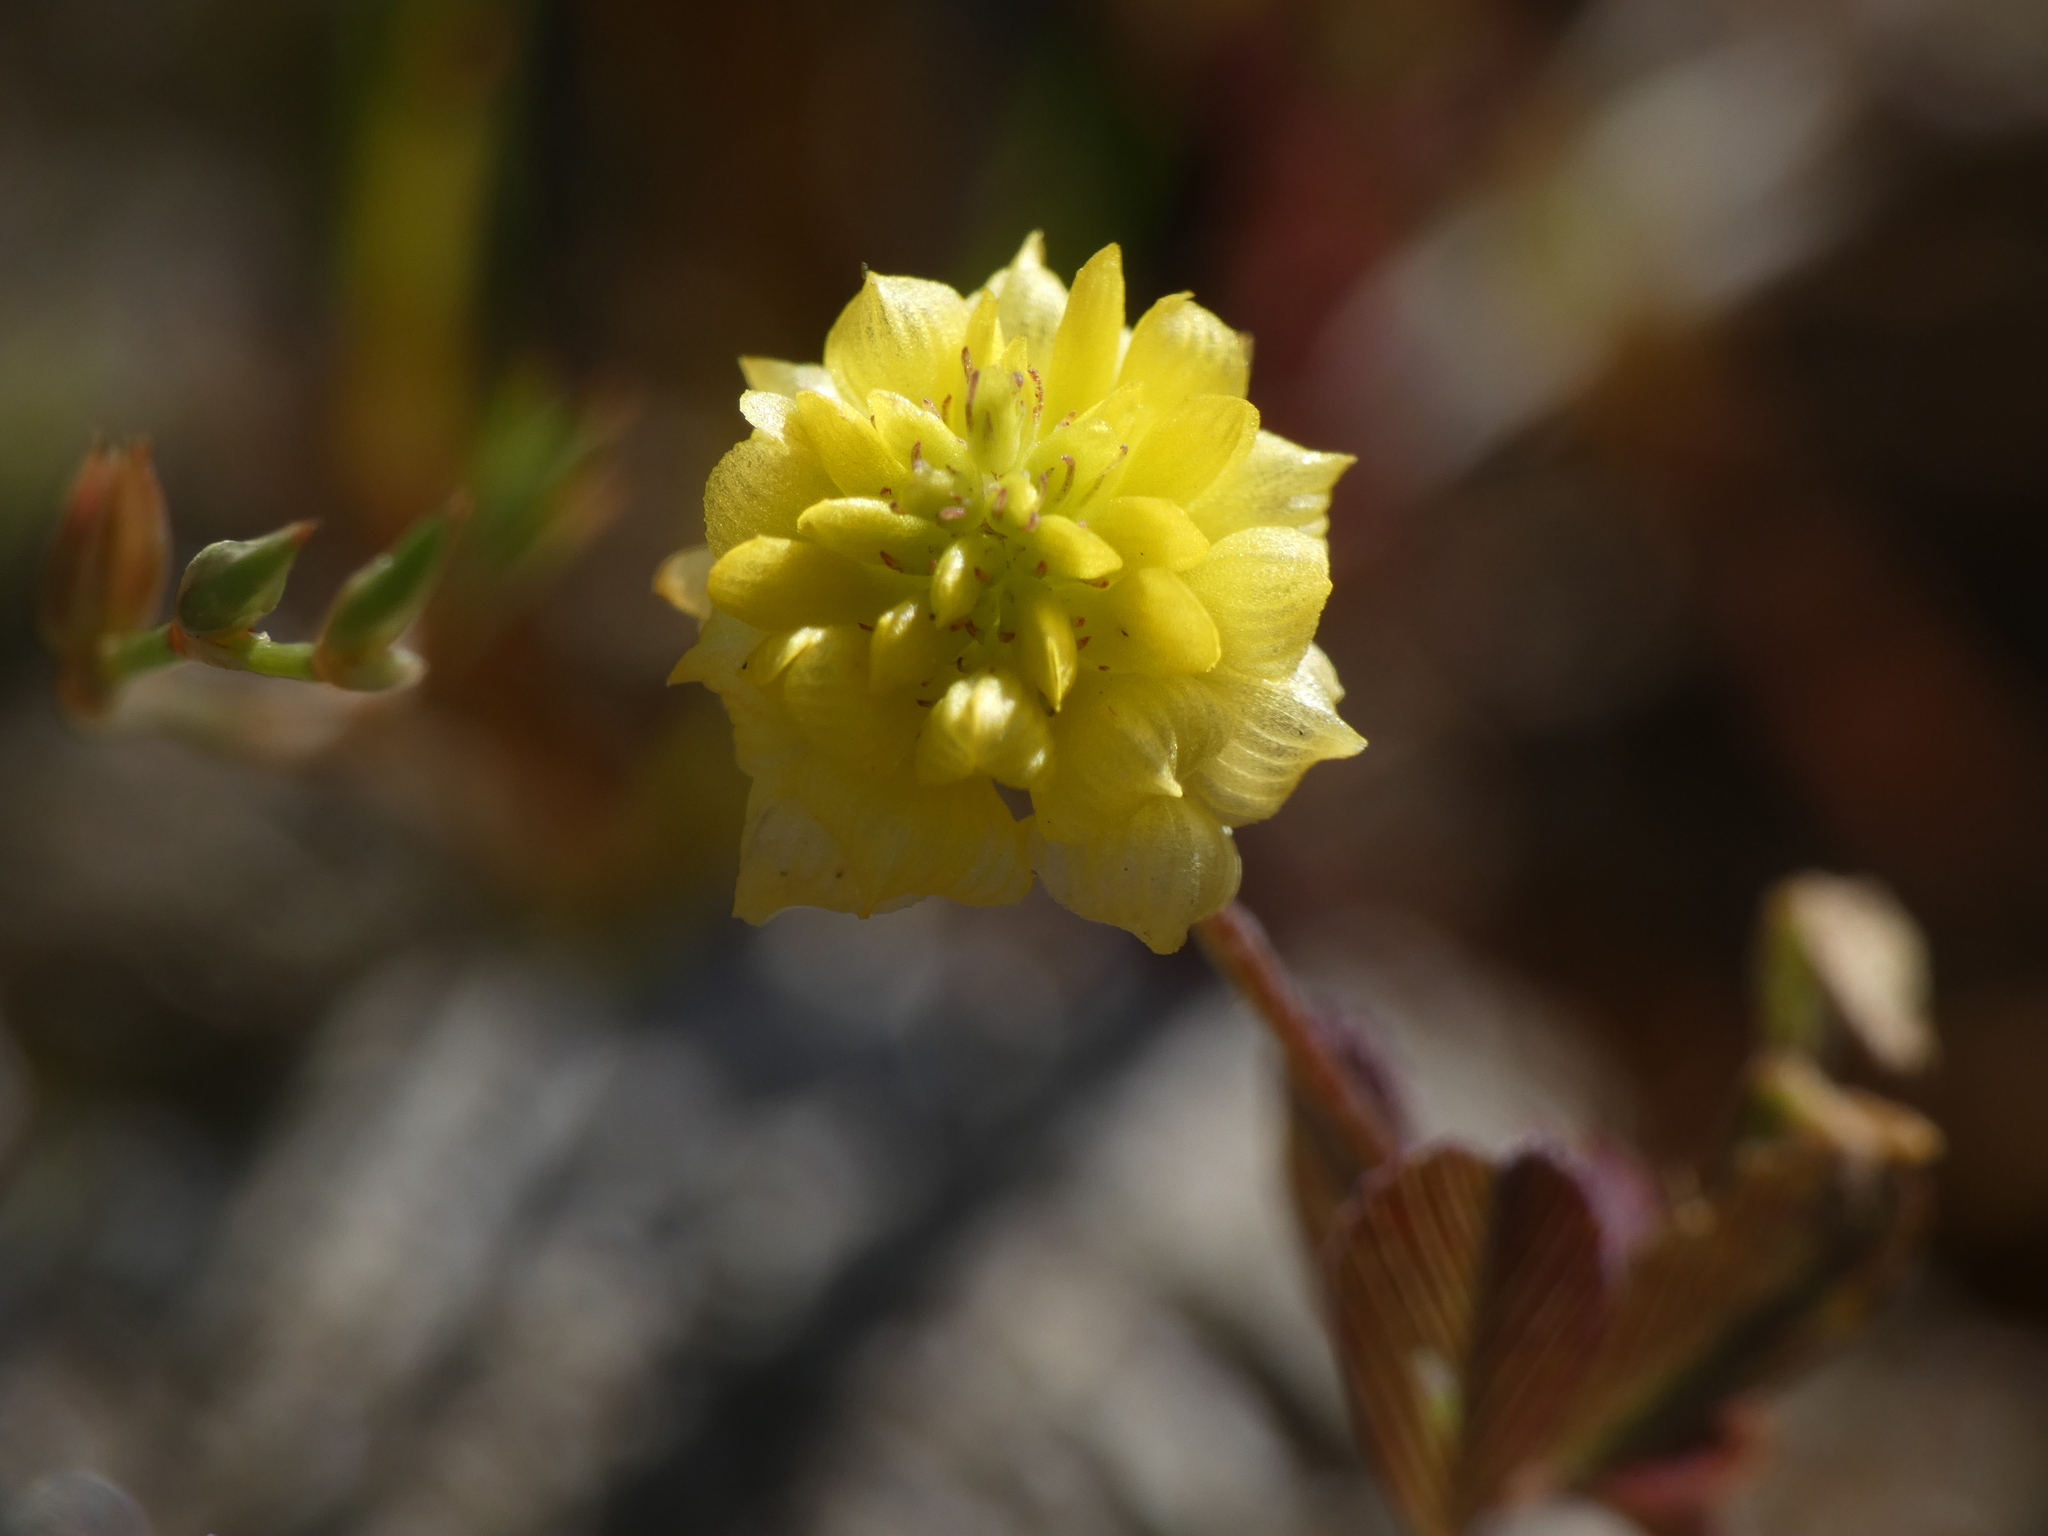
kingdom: Plantae
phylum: Tracheophyta
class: Magnoliopsida
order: Fabales
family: Fabaceae
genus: Trifolium
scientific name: Trifolium campestre
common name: Field clover
